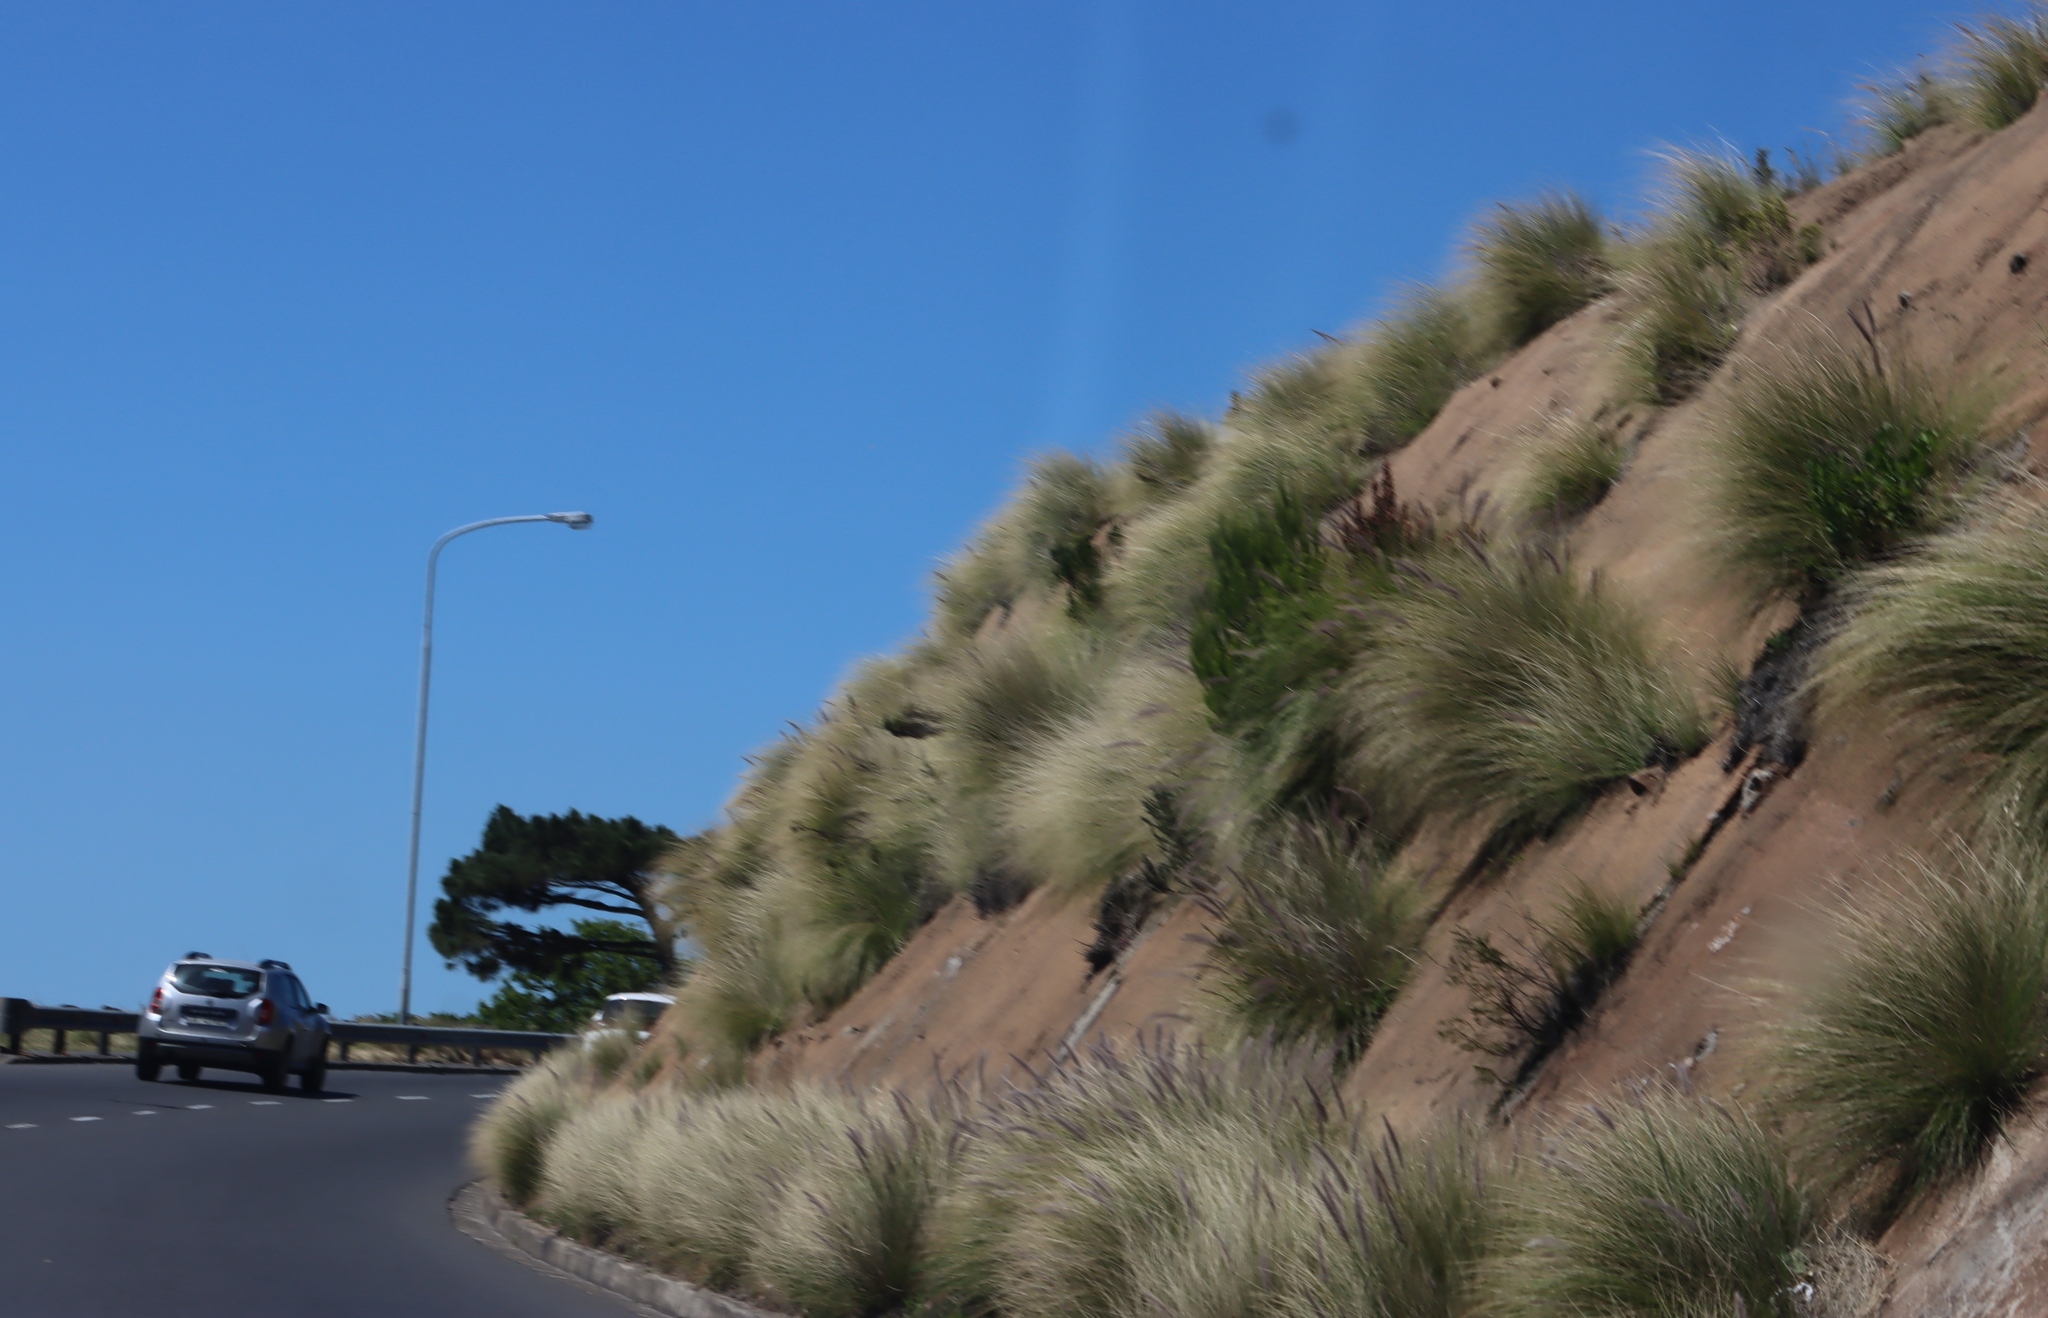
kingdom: Plantae
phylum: Tracheophyta
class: Liliopsida
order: Poales
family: Poaceae
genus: Cenchrus
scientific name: Cenchrus setaceus
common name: Crimson fountaingrass
